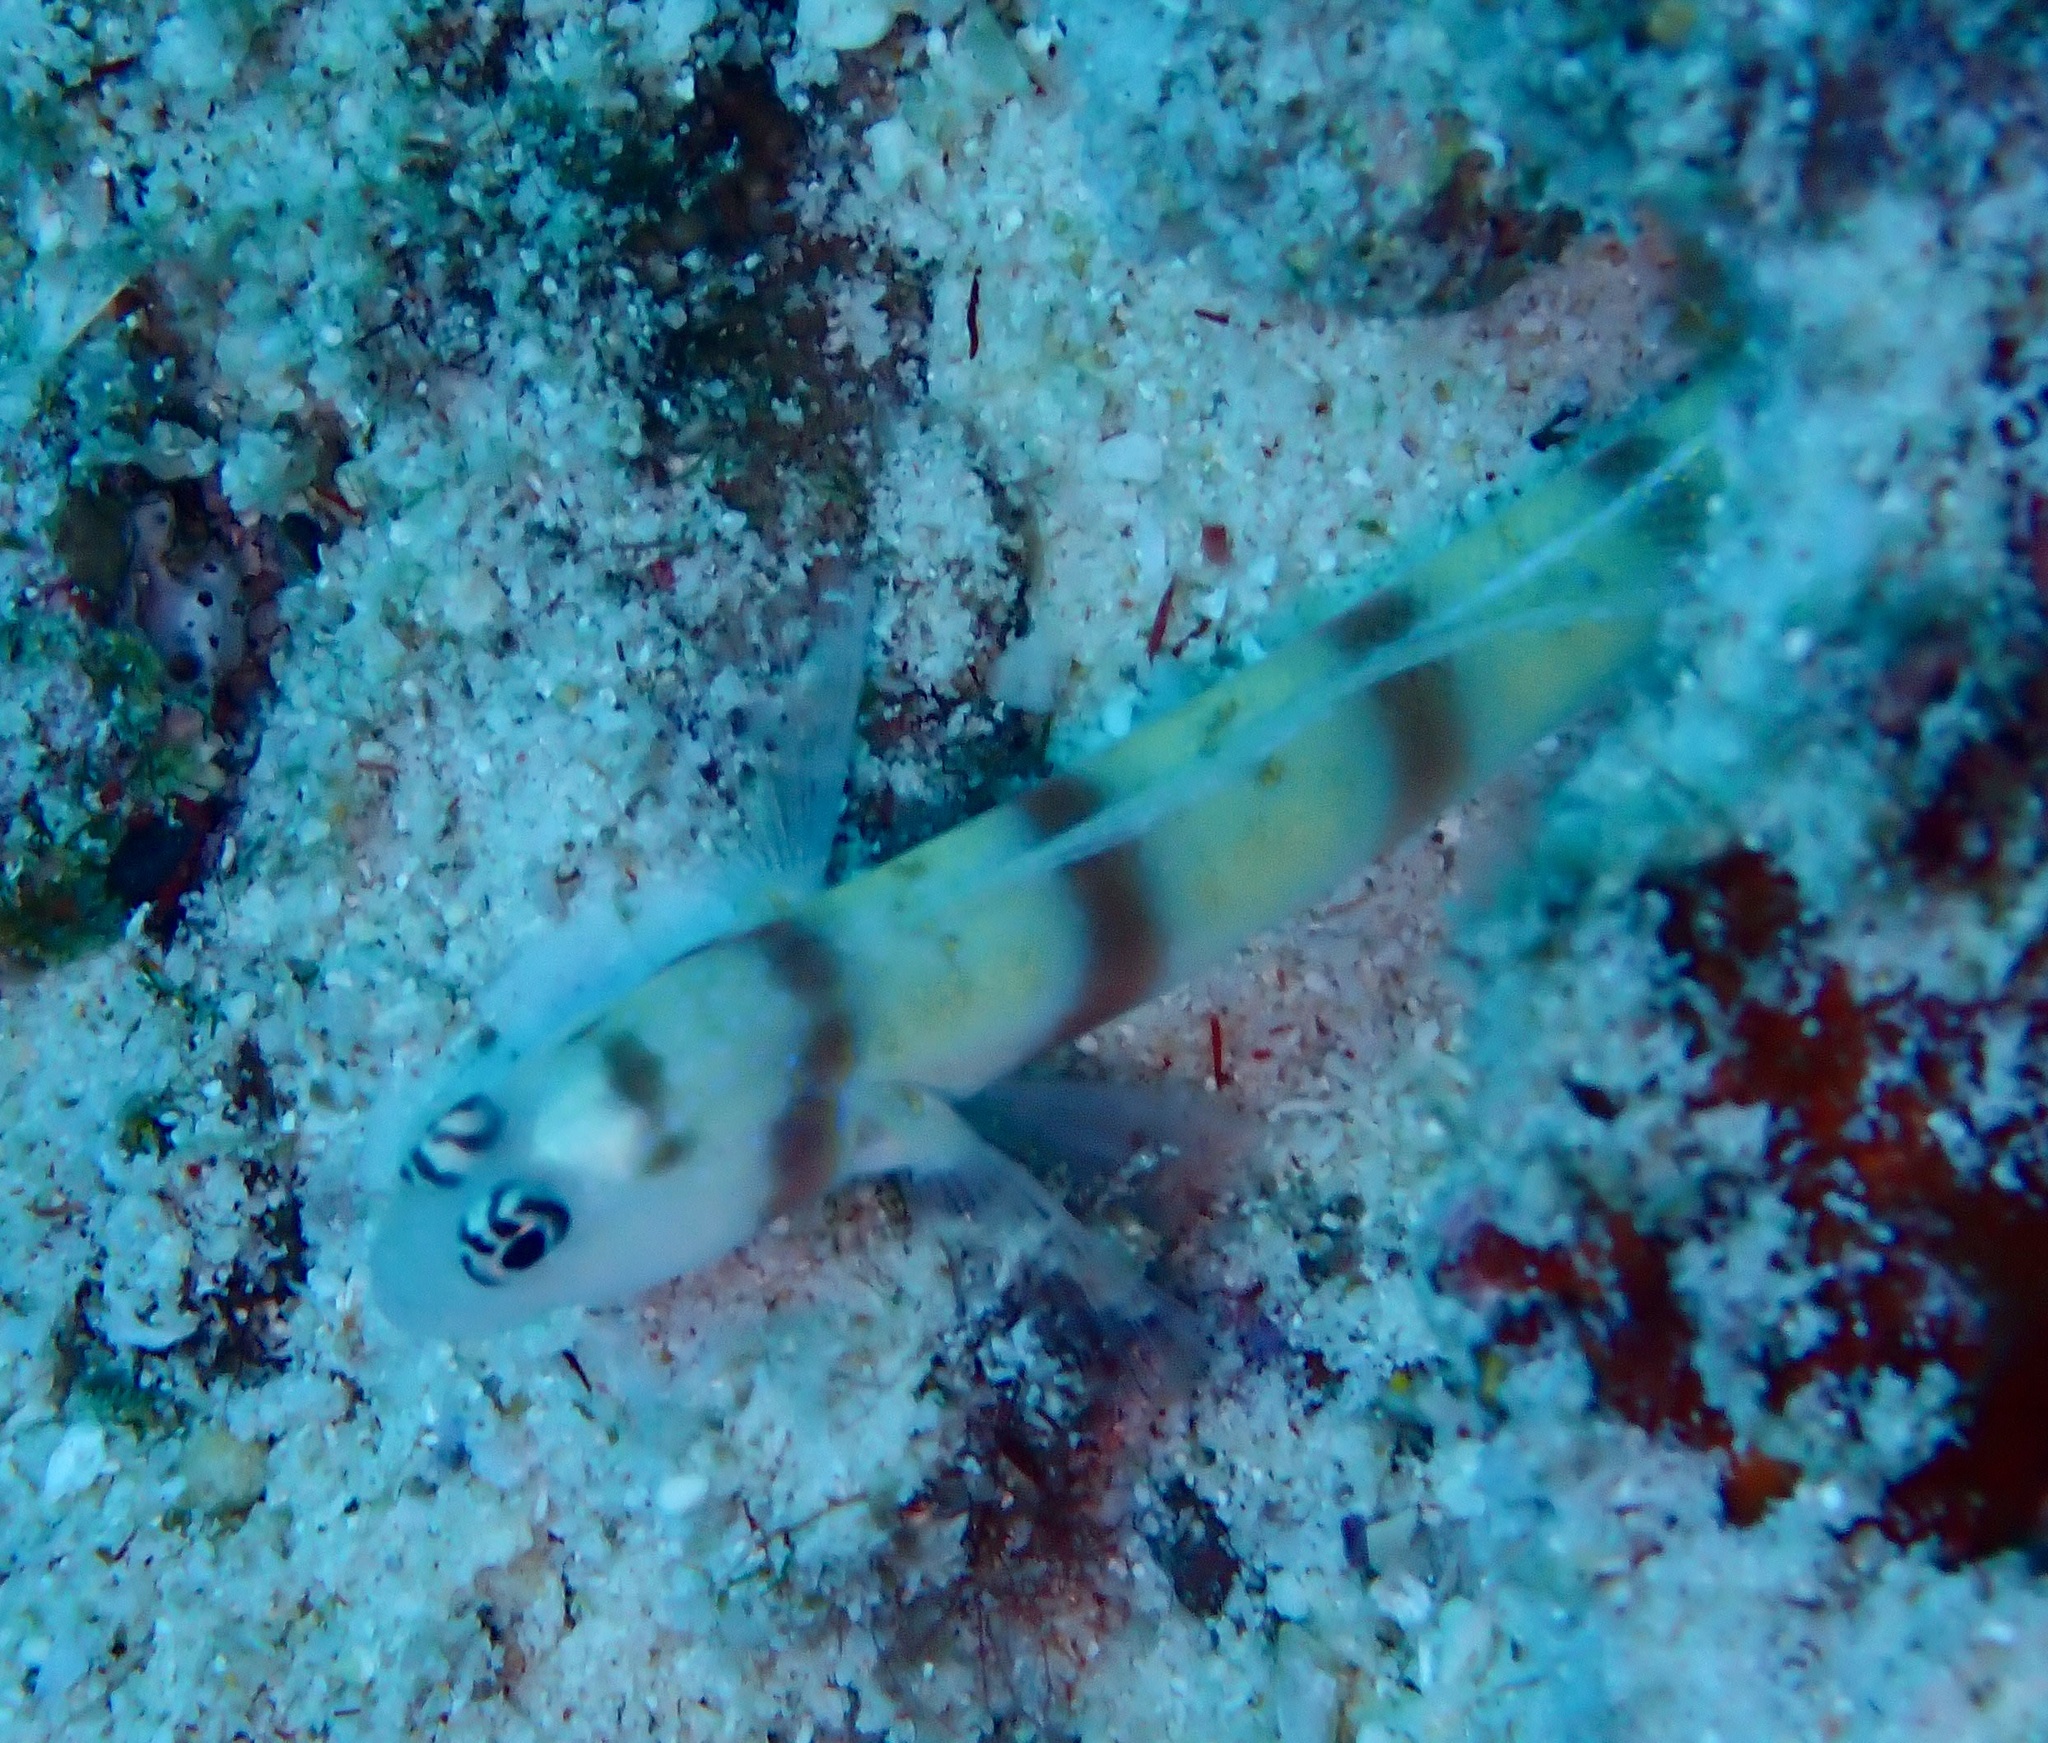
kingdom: Animalia
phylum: Chordata
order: Perciformes
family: Gobiidae
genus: Amblyeleotris
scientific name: Amblyeleotris steinitzi
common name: Steinitz' prawn-goby
